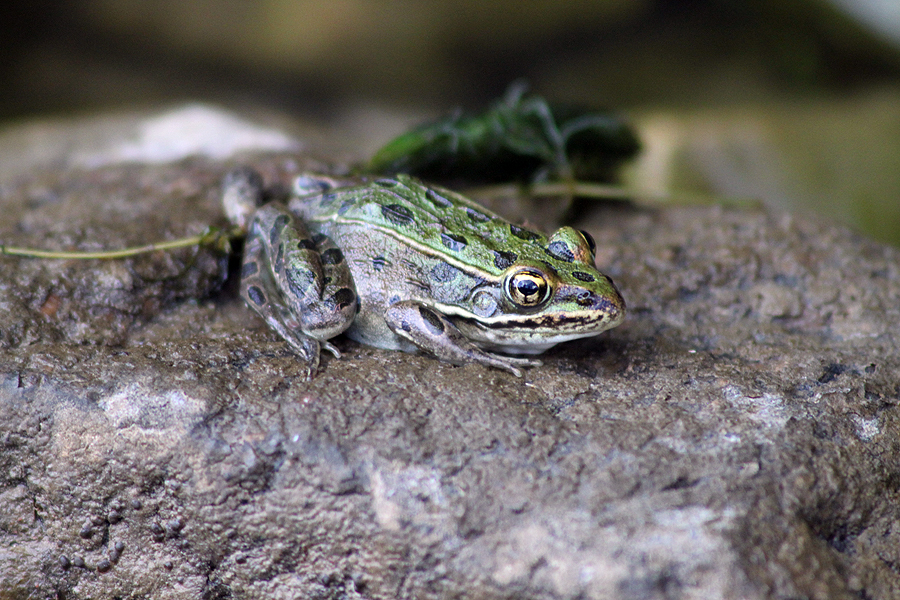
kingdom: Animalia
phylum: Chordata
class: Amphibia
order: Anura
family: Ranidae
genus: Lithobates
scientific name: Lithobates pipiens
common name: Northern leopard frog
